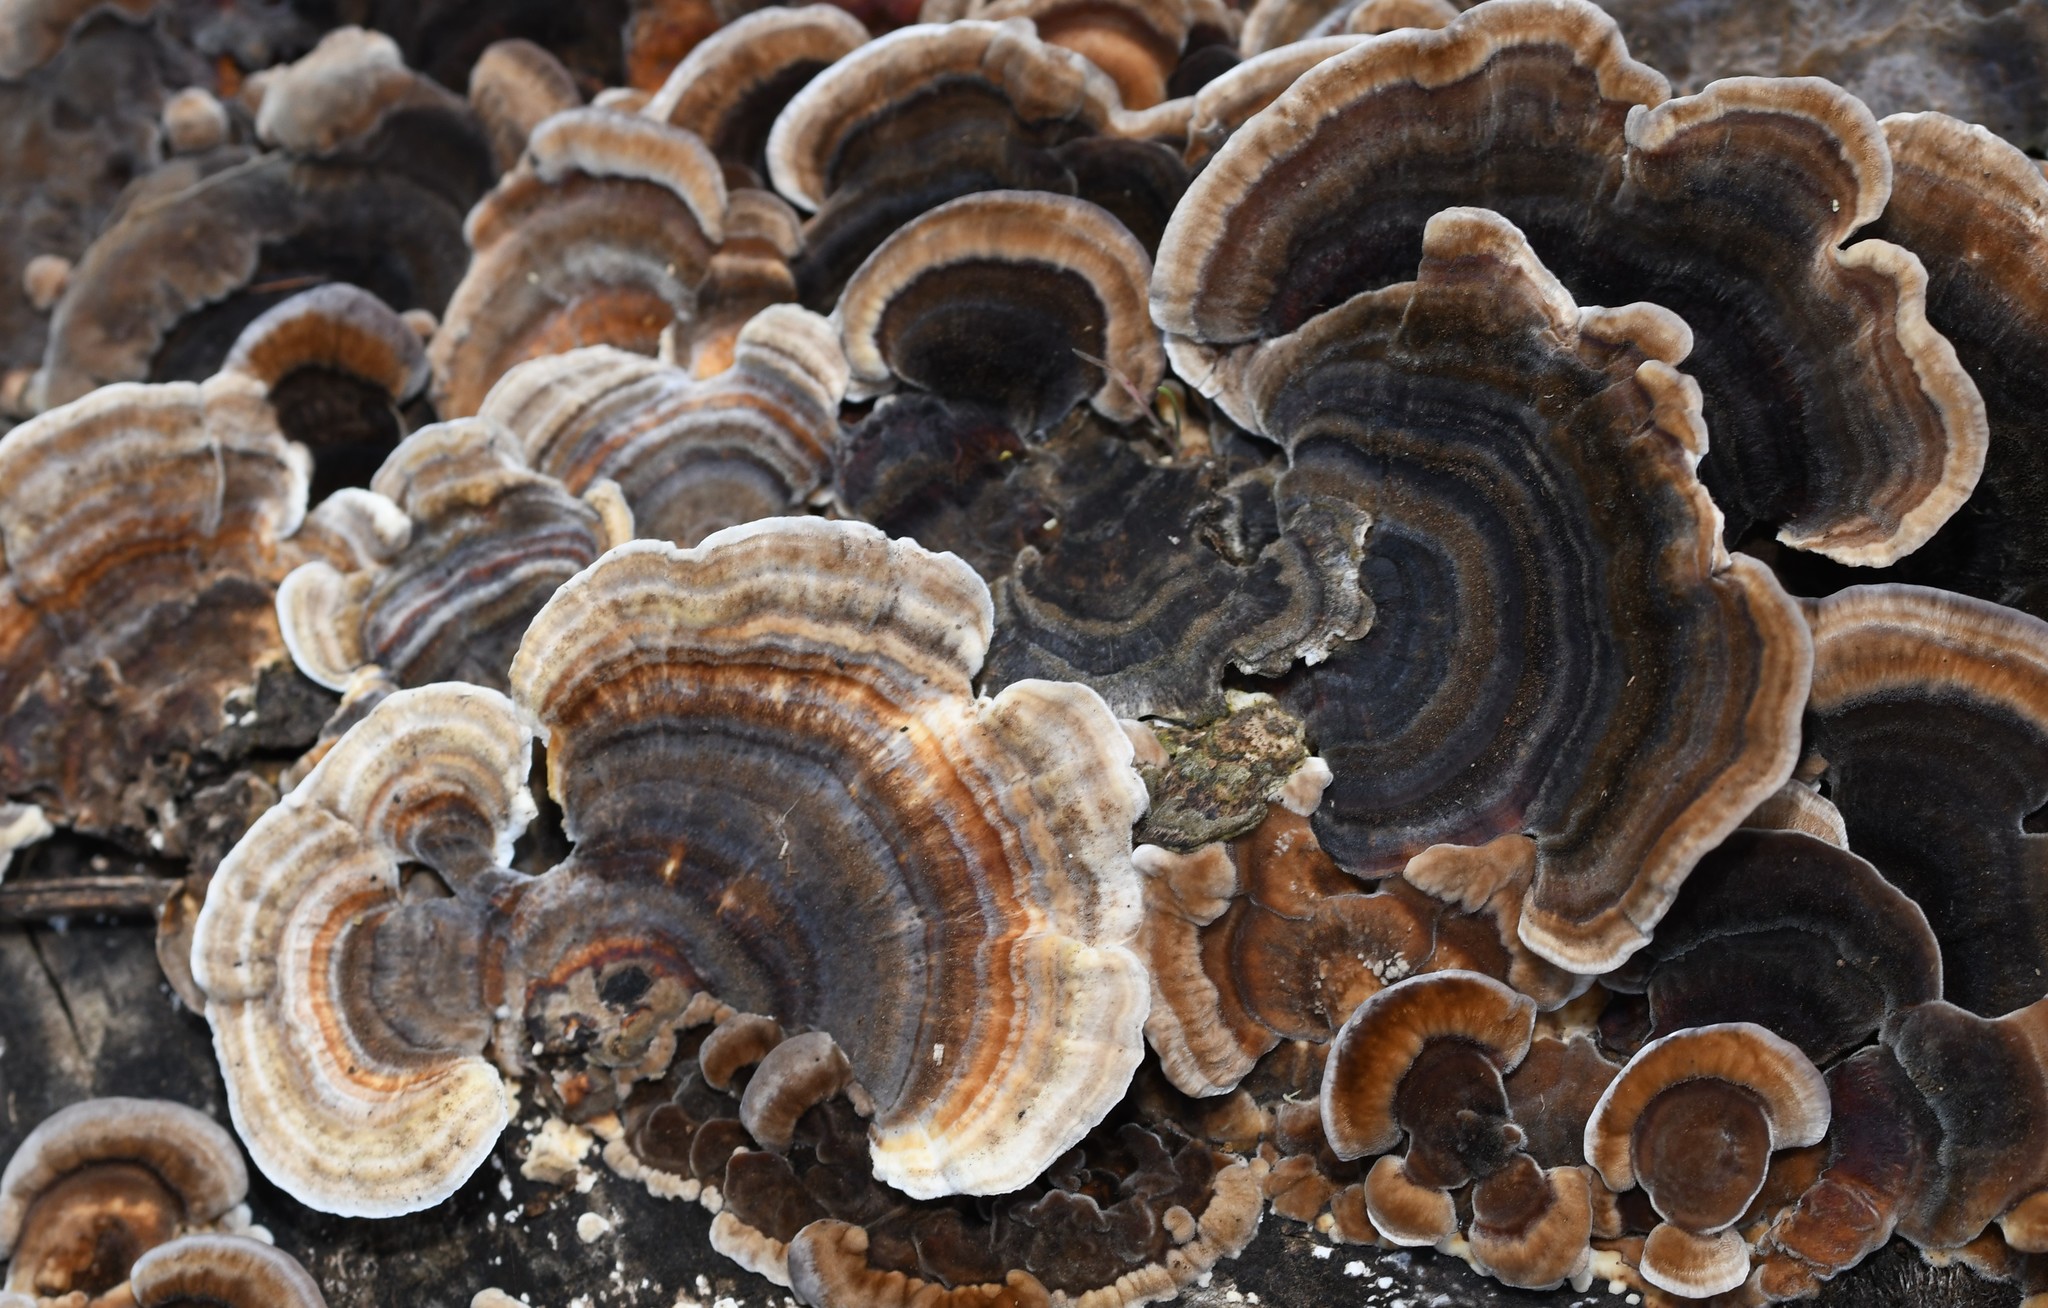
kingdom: Fungi
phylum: Basidiomycota
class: Agaricomycetes
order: Polyporales
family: Polyporaceae
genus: Trametes
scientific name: Trametes versicolor
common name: Turkeytail
